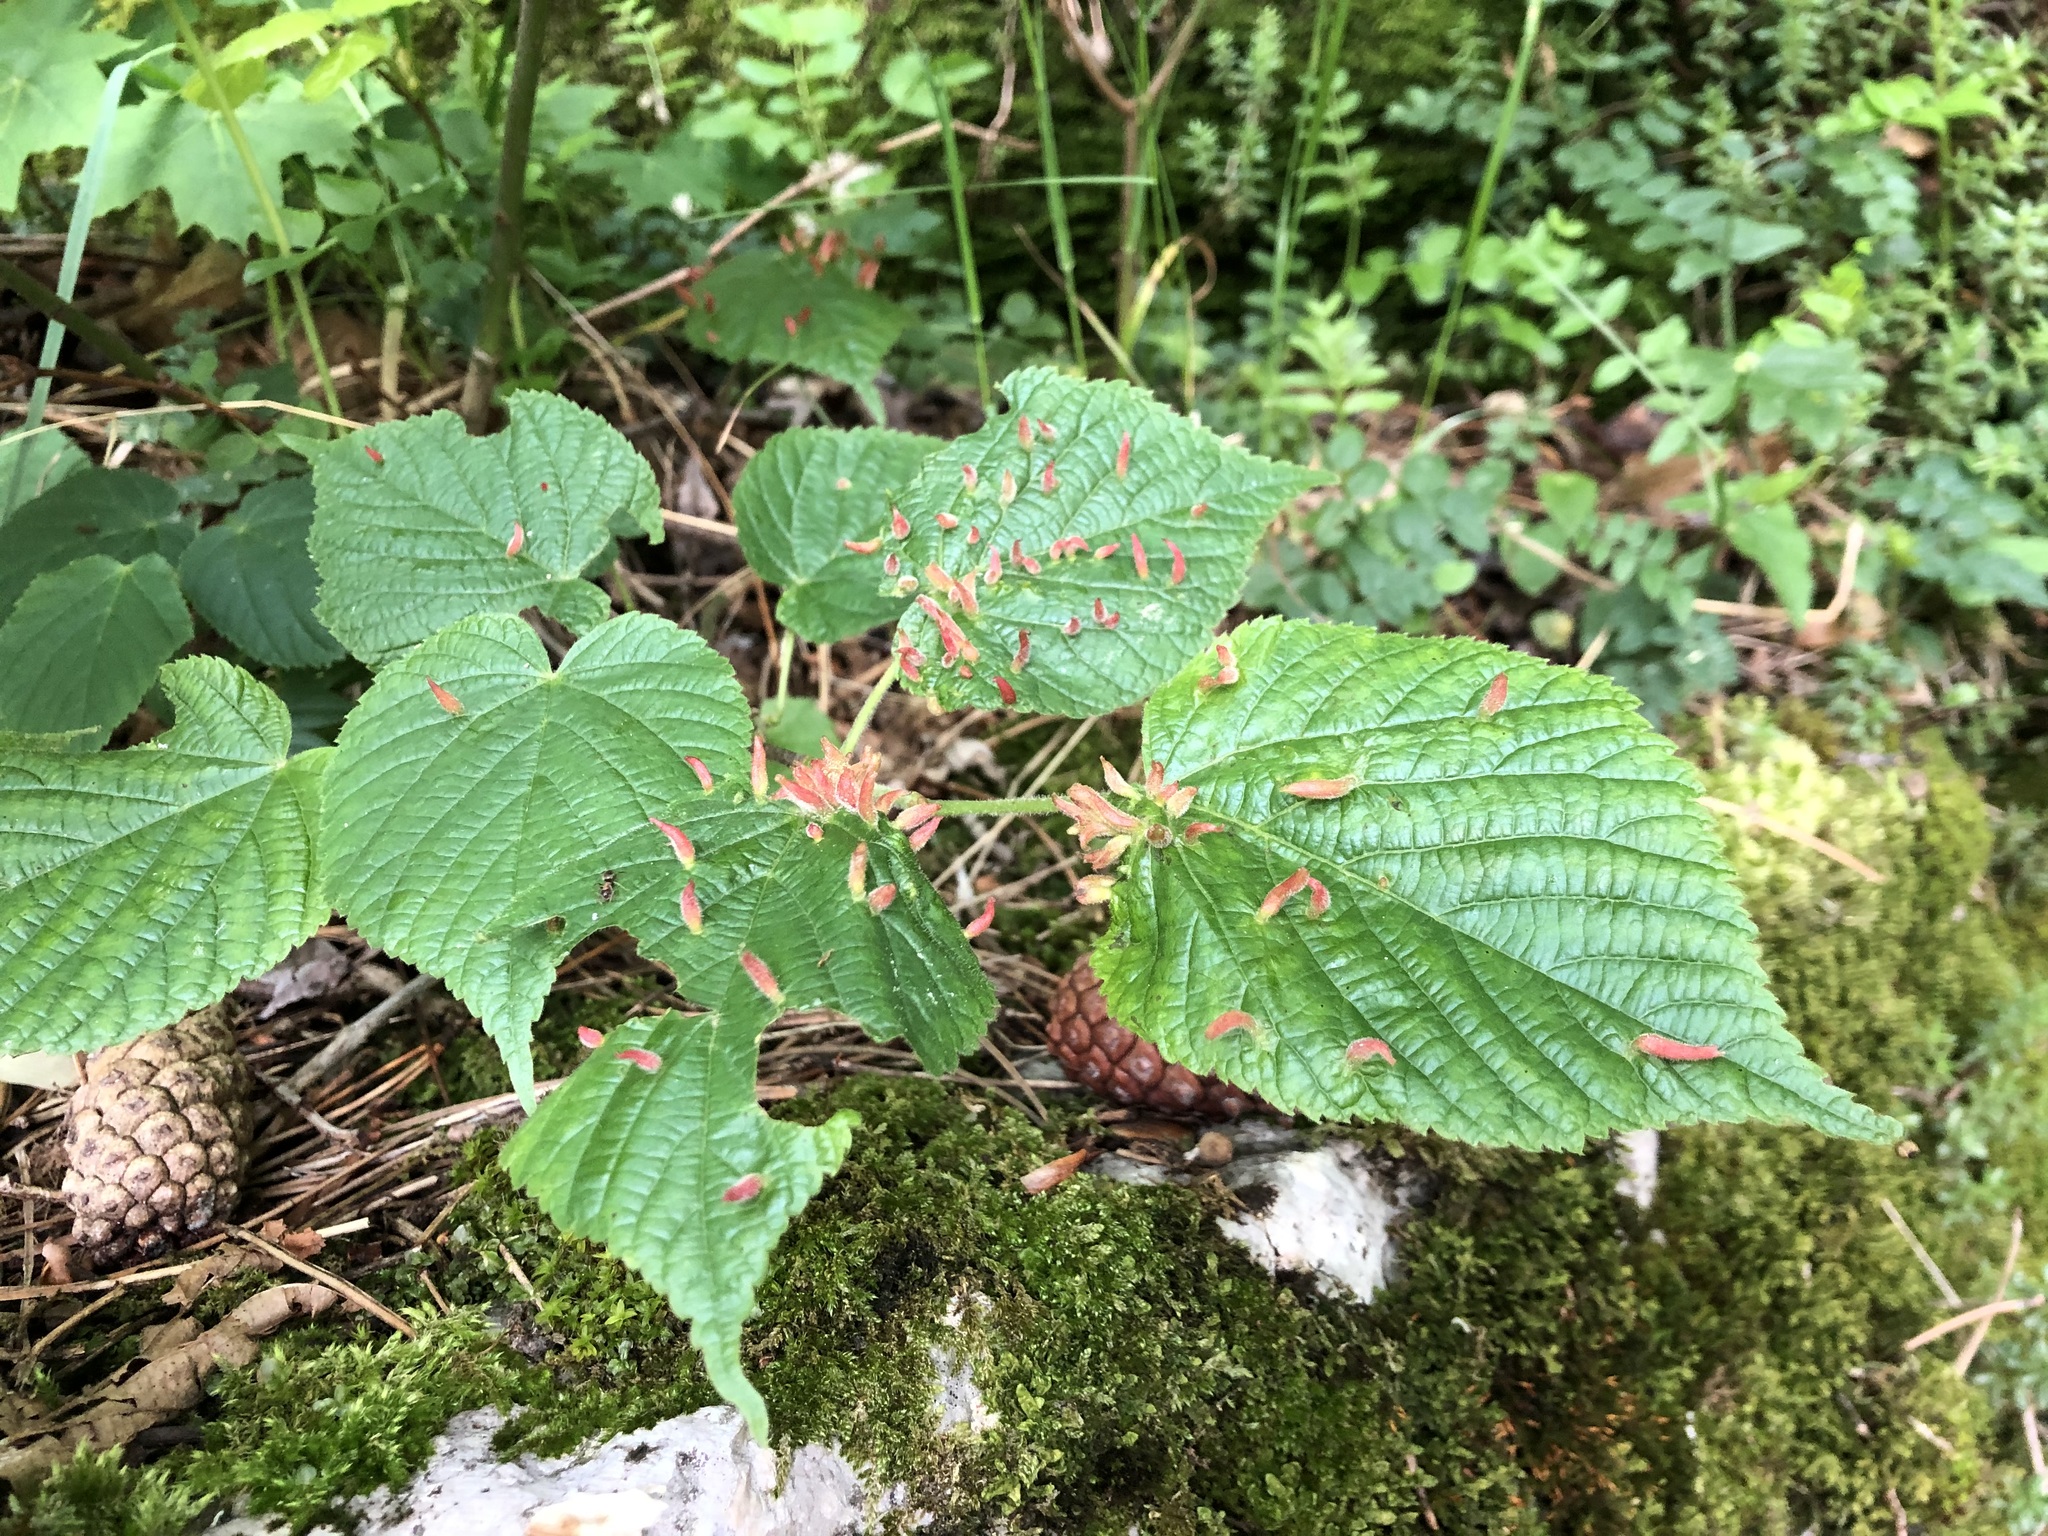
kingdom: Animalia
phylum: Arthropoda
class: Arachnida
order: Trombidiformes
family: Eriophyidae
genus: Eriophyes
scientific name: Eriophyes tiliae
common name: Red nail gall mite
